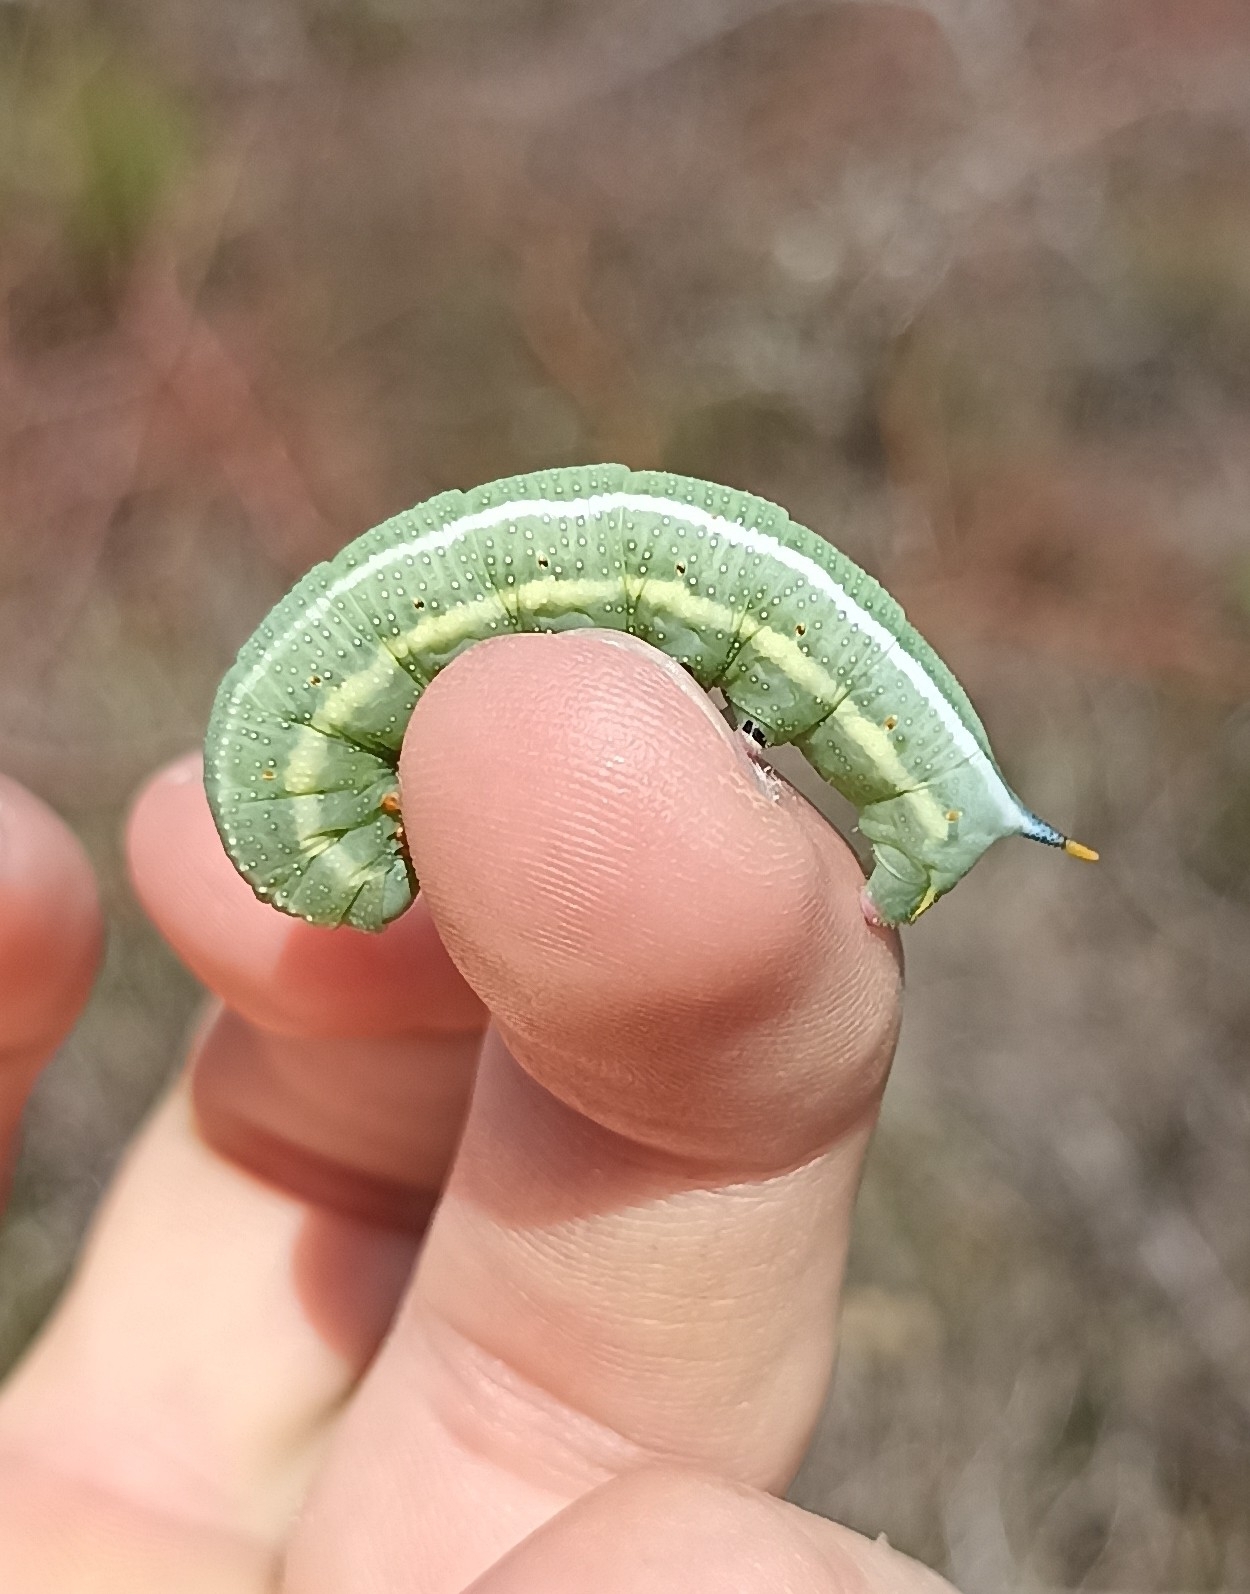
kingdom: Animalia
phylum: Arthropoda
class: Insecta
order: Lepidoptera
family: Sphingidae
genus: Macroglossum
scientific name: Macroglossum stellatarum
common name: Humming-bird hawk-moth
